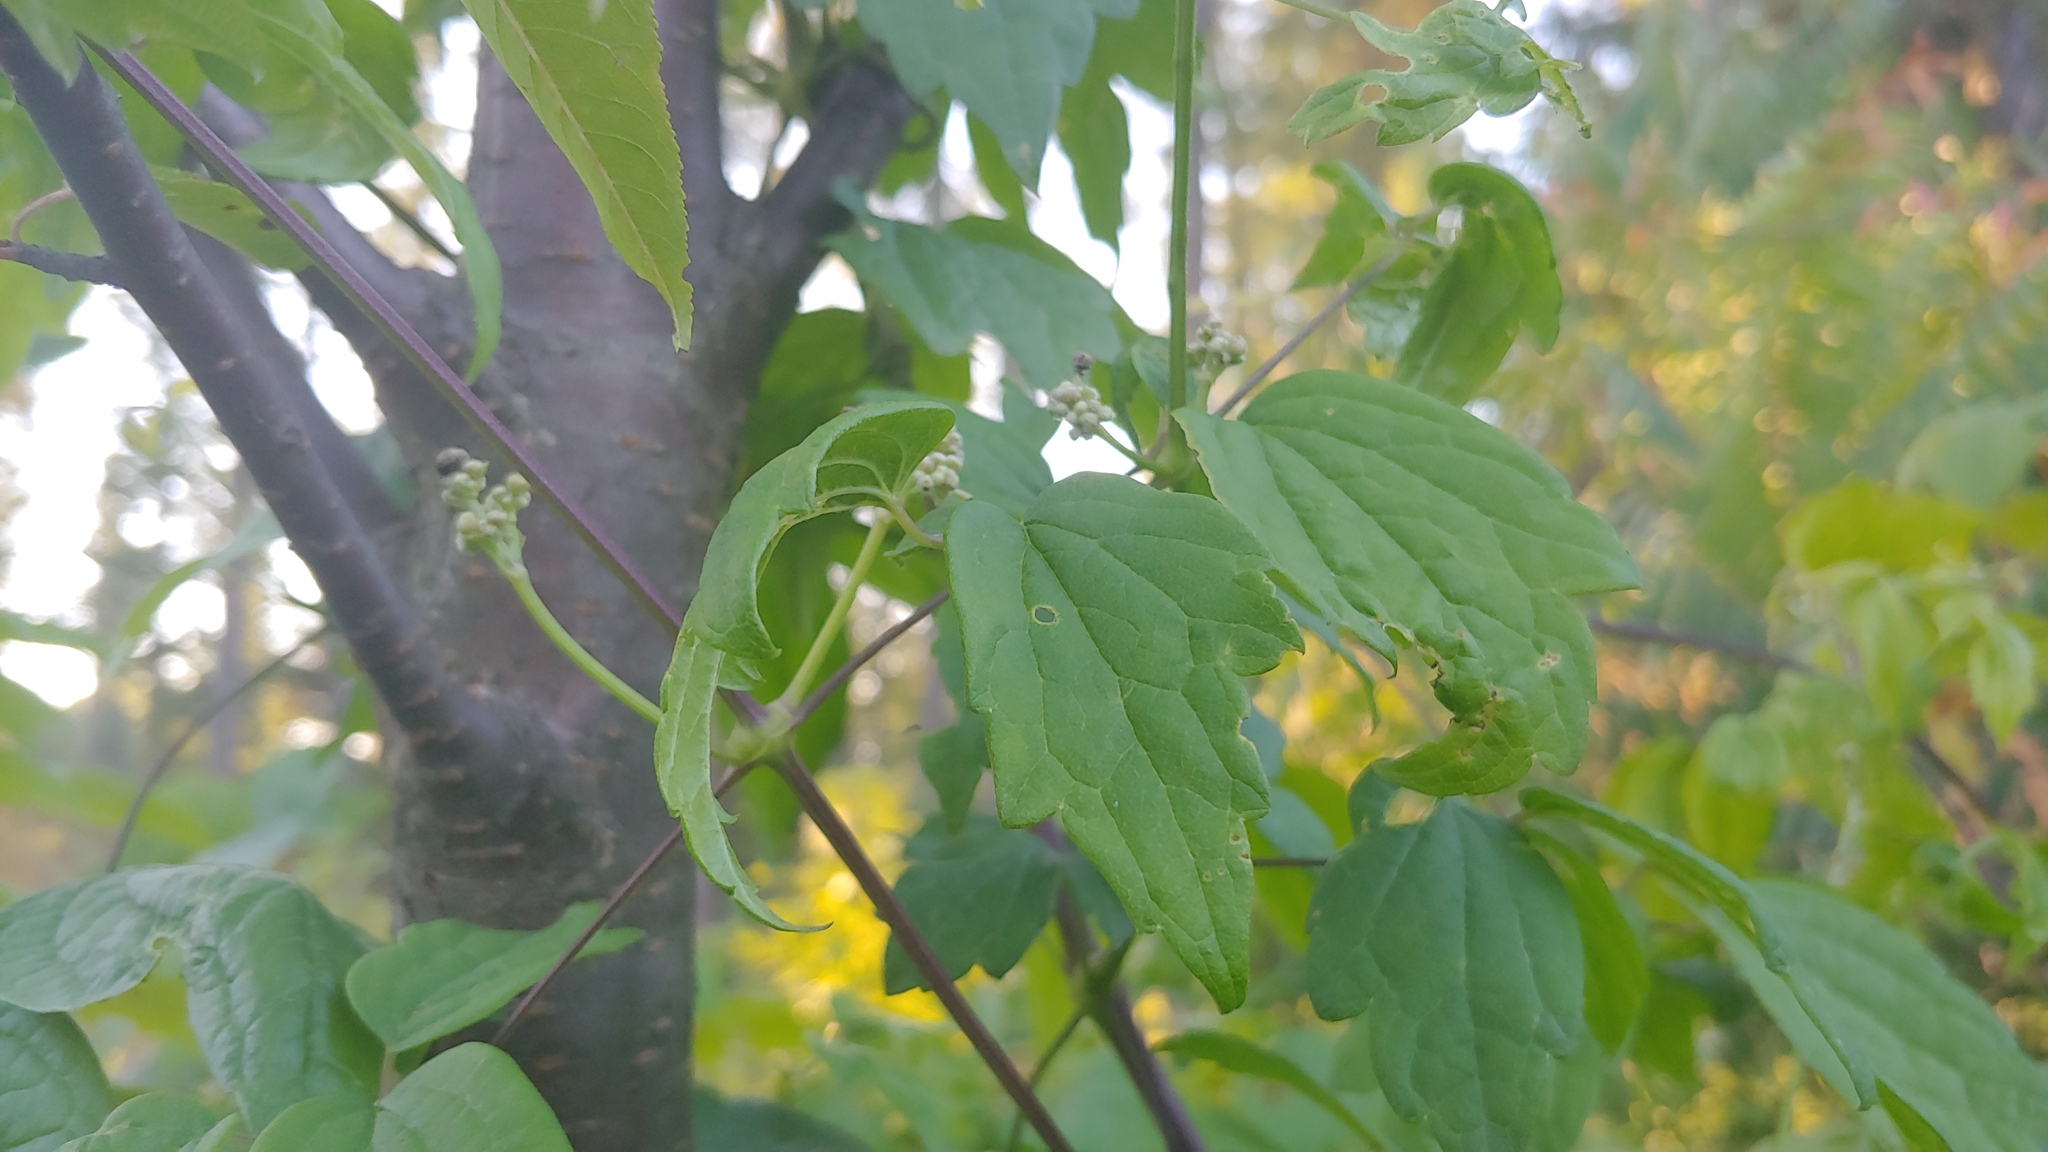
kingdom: Plantae
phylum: Tracheophyta
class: Magnoliopsida
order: Ranunculales
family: Ranunculaceae
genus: Clematis
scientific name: Clematis virginiana
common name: Virgin's-bower
